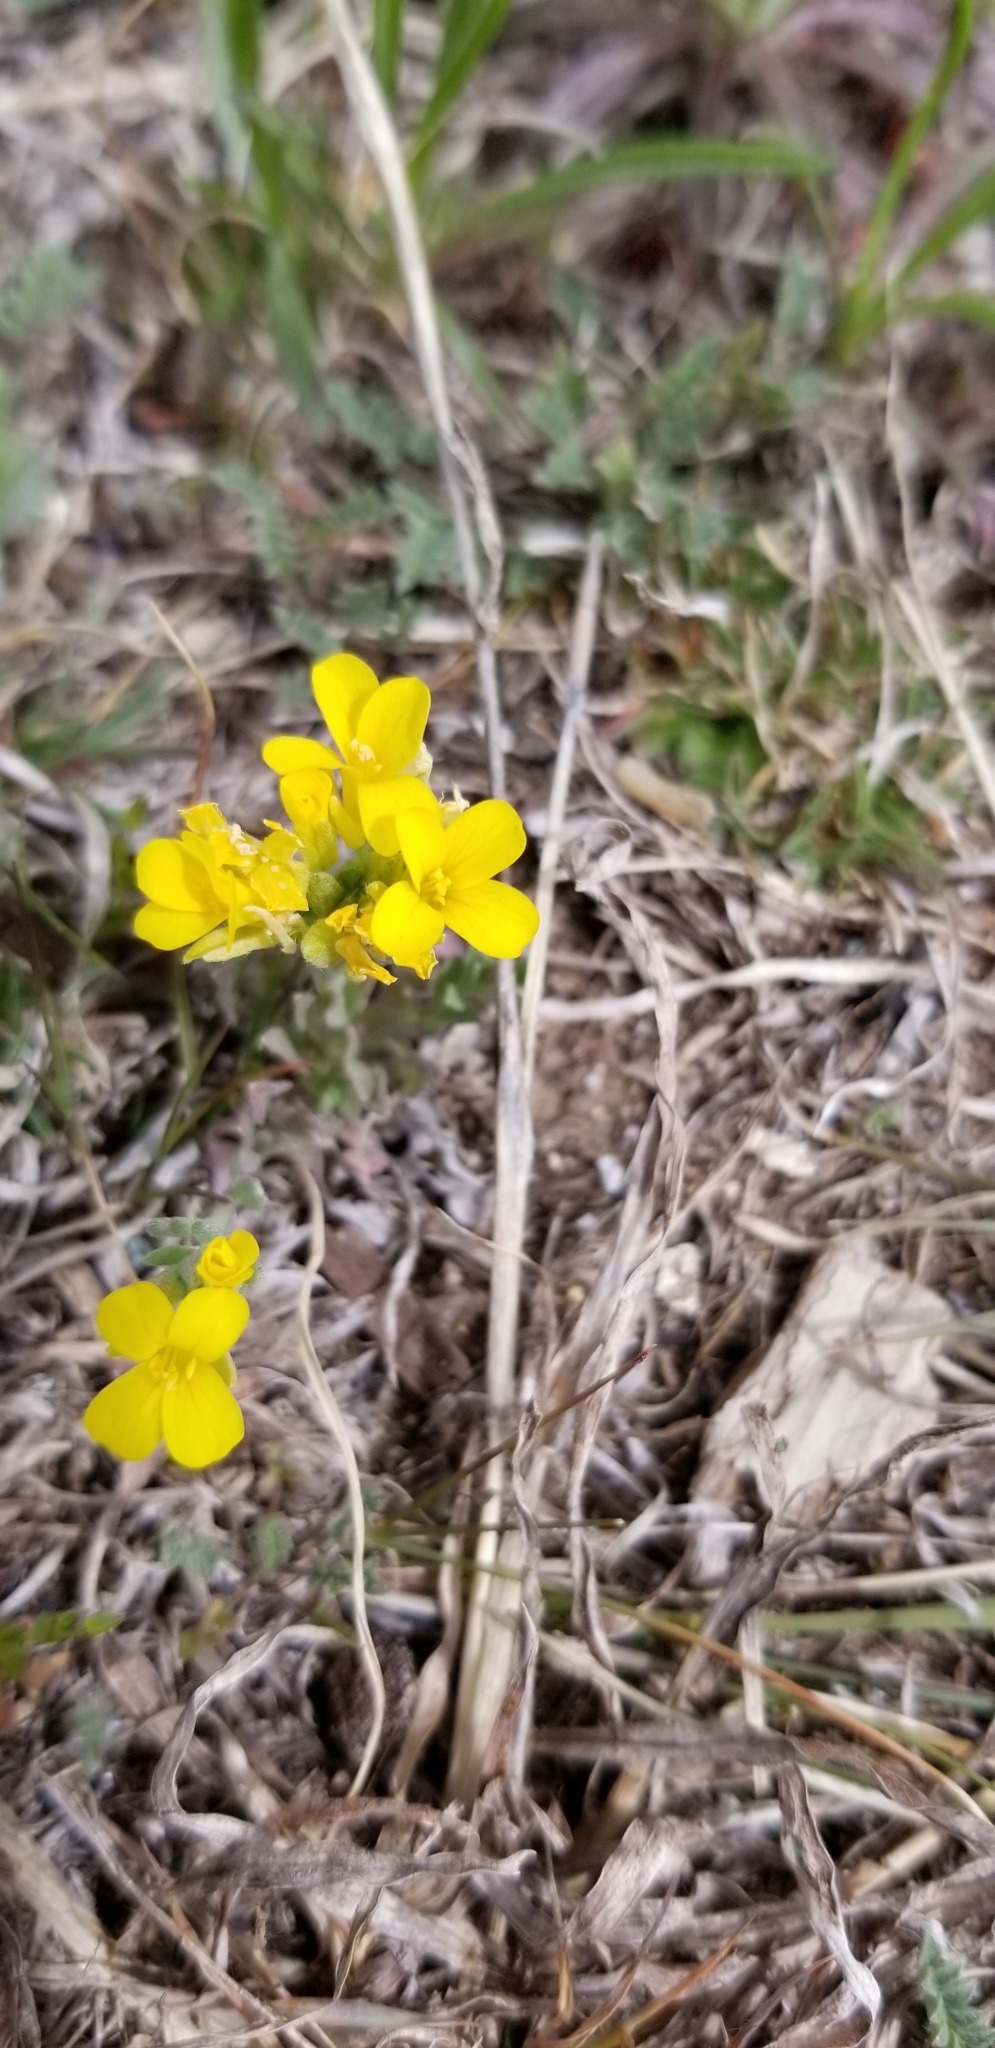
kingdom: Plantae
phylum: Tracheophyta
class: Magnoliopsida
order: Brassicales
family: Brassicaceae
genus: Physaria
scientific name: Physaria gracilis
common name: Spreading bladderpod
